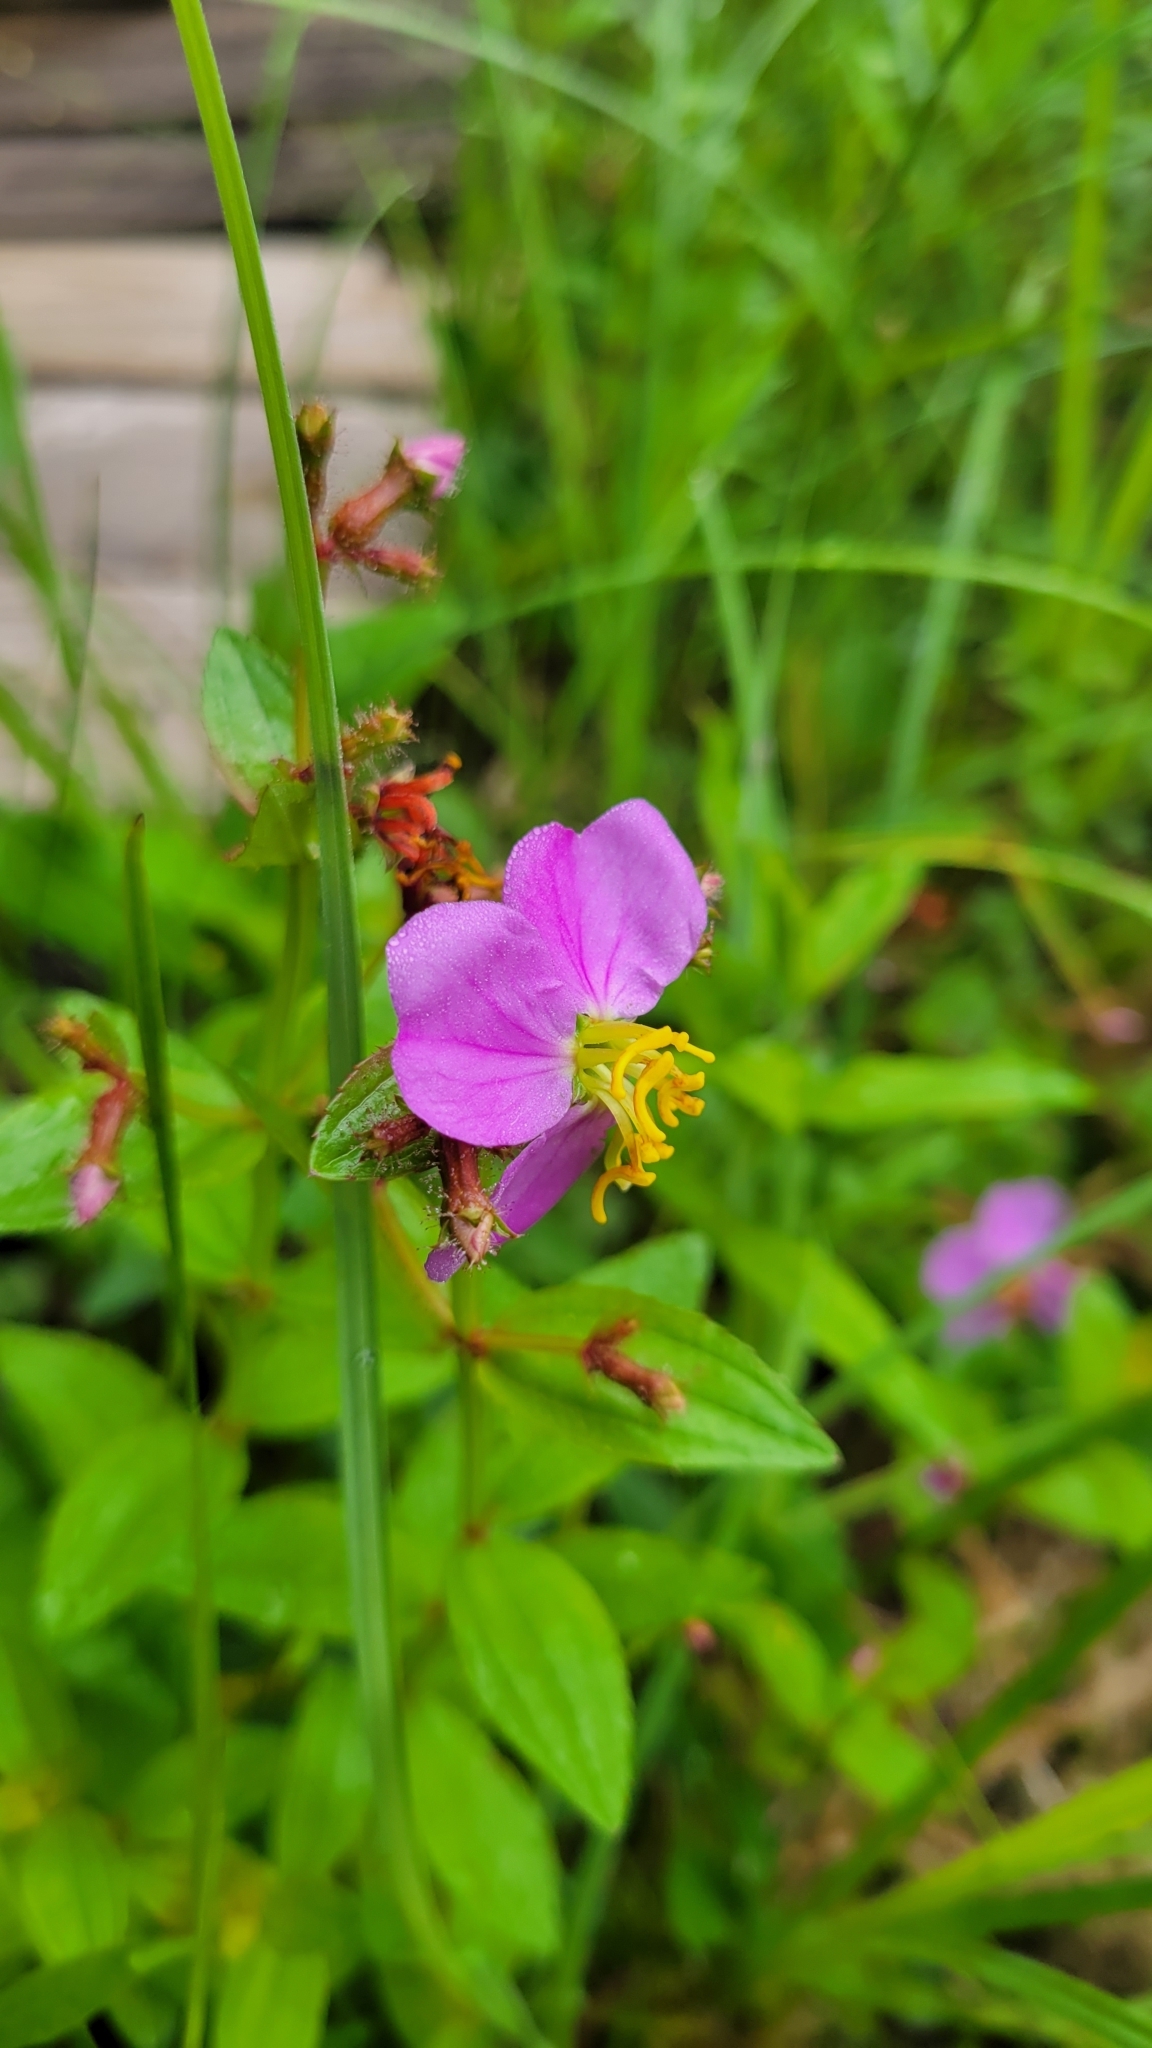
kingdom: Plantae
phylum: Tracheophyta
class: Magnoliopsida
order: Myrtales
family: Melastomataceae
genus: Rhexia
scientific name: Rhexia virginica
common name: Common meadow beauty
